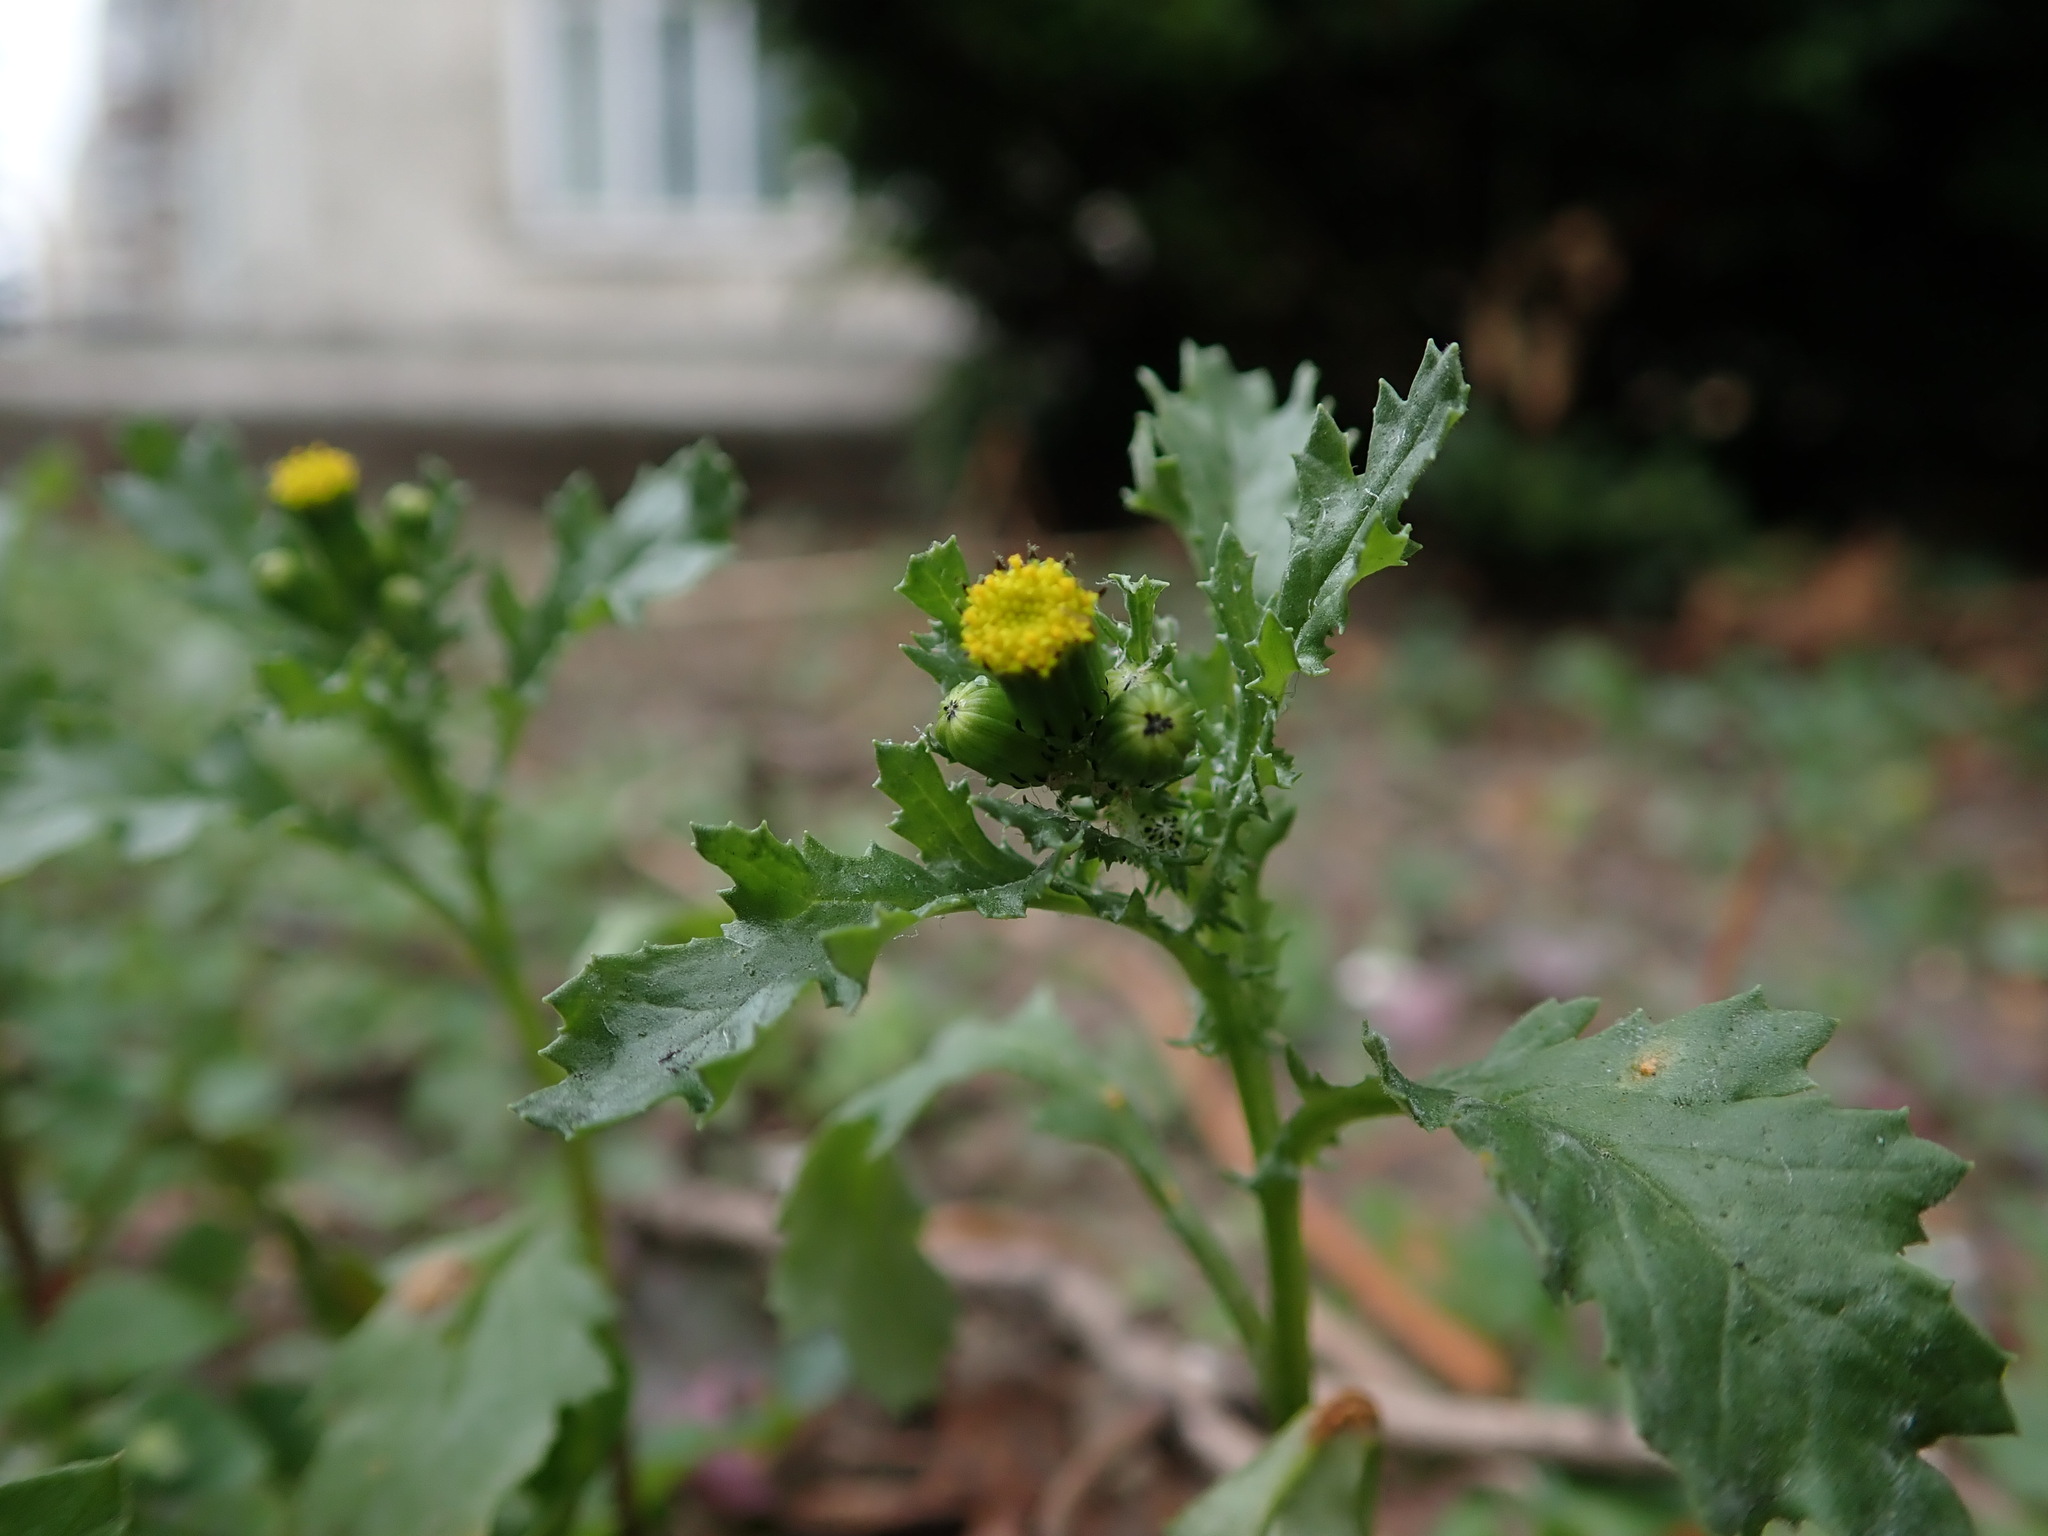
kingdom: Plantae
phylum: Tracheophyta
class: Magnoliopsida
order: Asterales
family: Asteraceae
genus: Senecio
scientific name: Senecio vulgaris
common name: Old-man-in-the-spring
